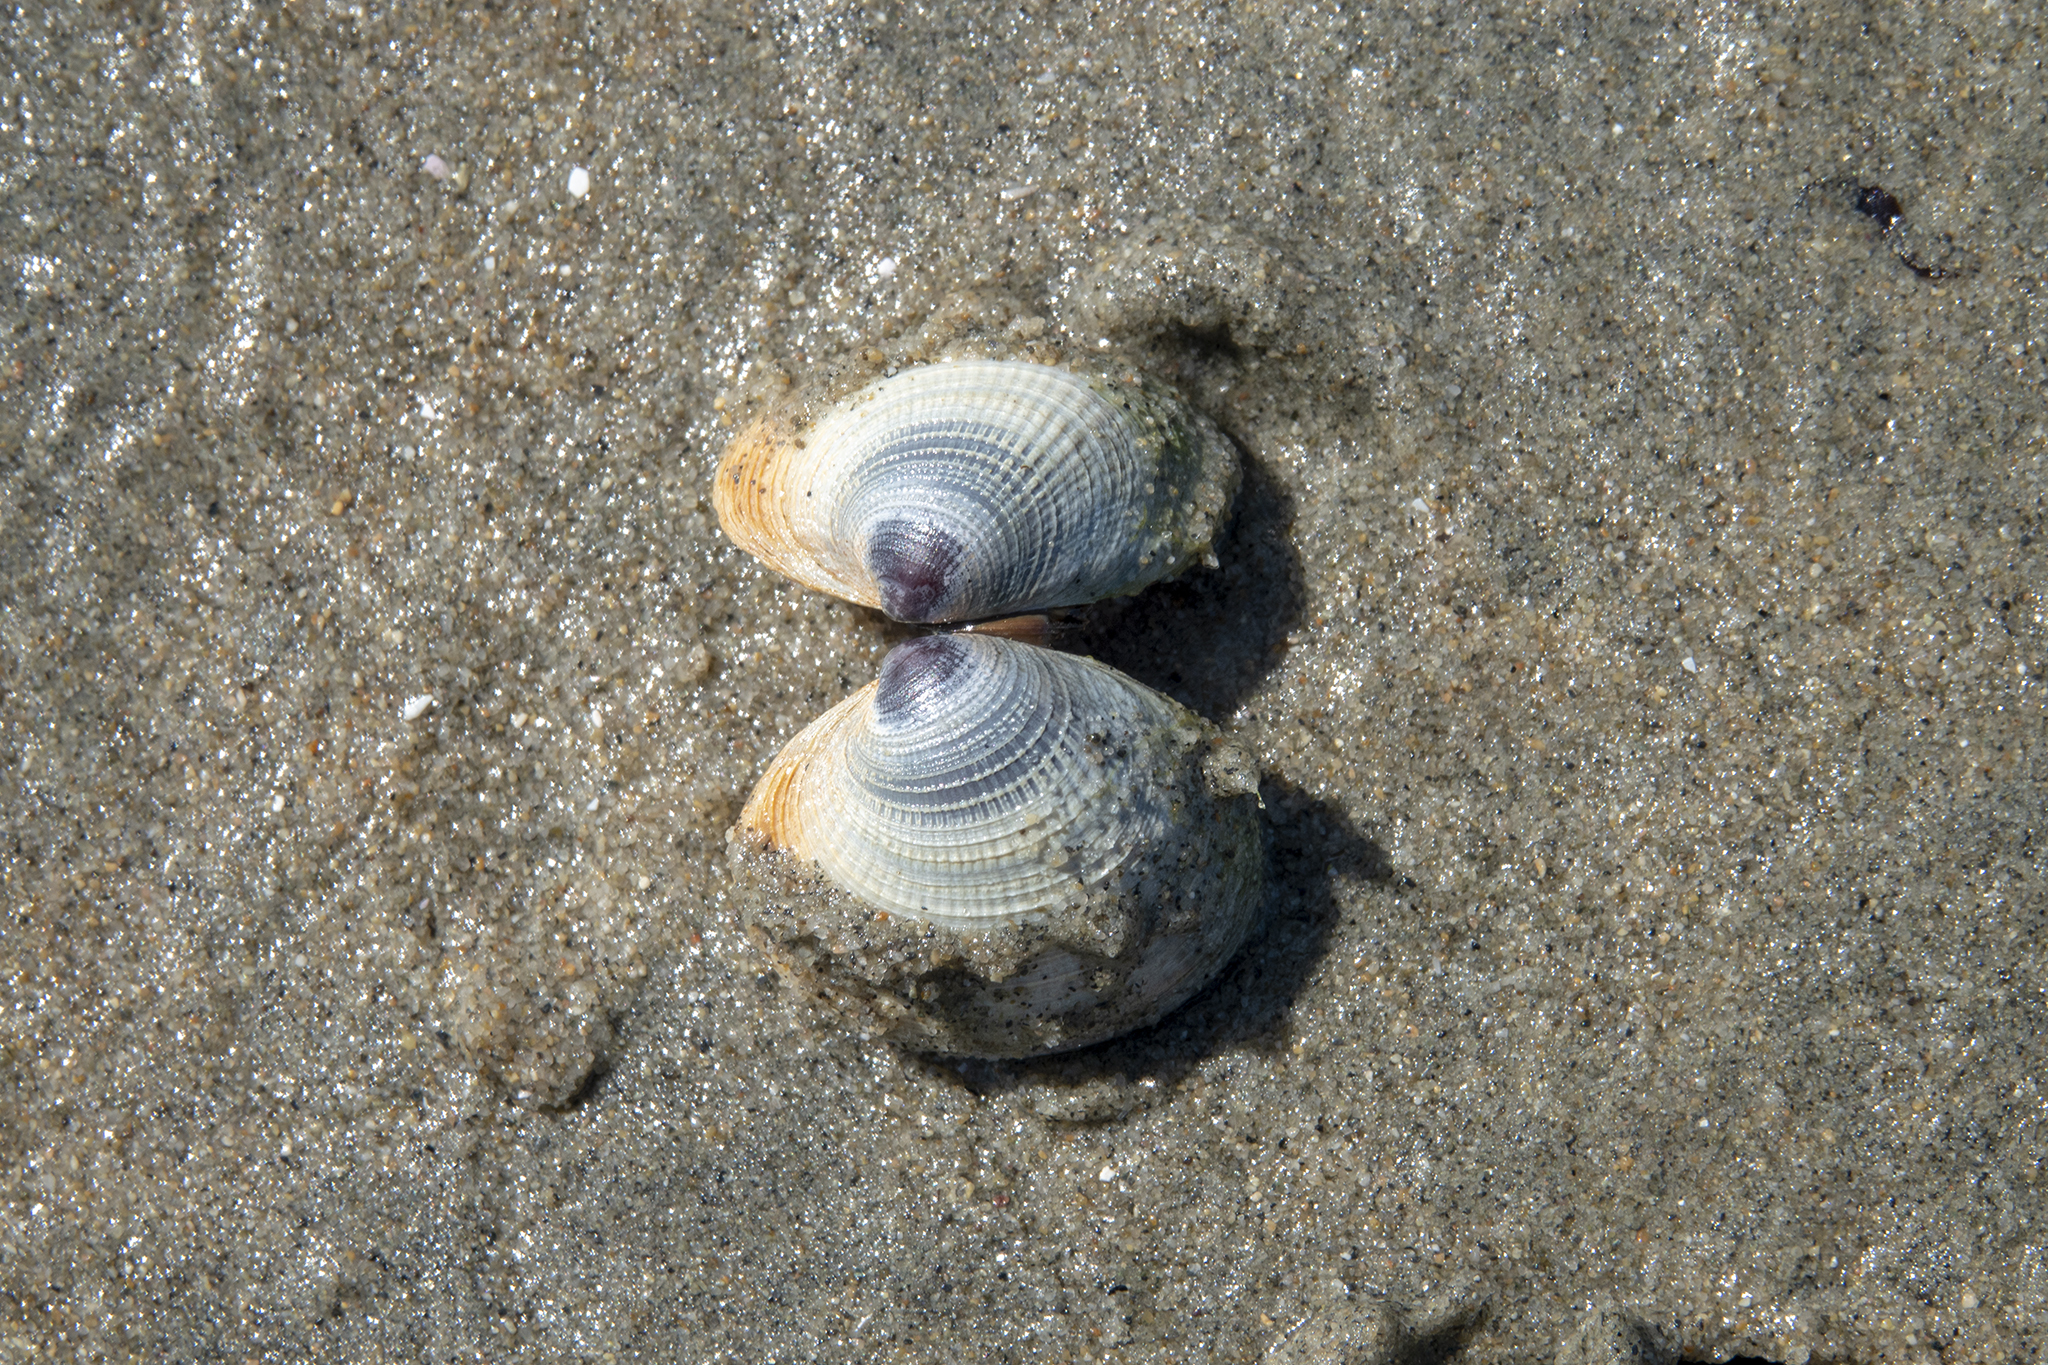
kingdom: Animalia
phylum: Mollusca
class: Bivalvia
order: Venerida
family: Veneridae
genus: Austrovenus
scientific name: Austrovenus stutchburyi
